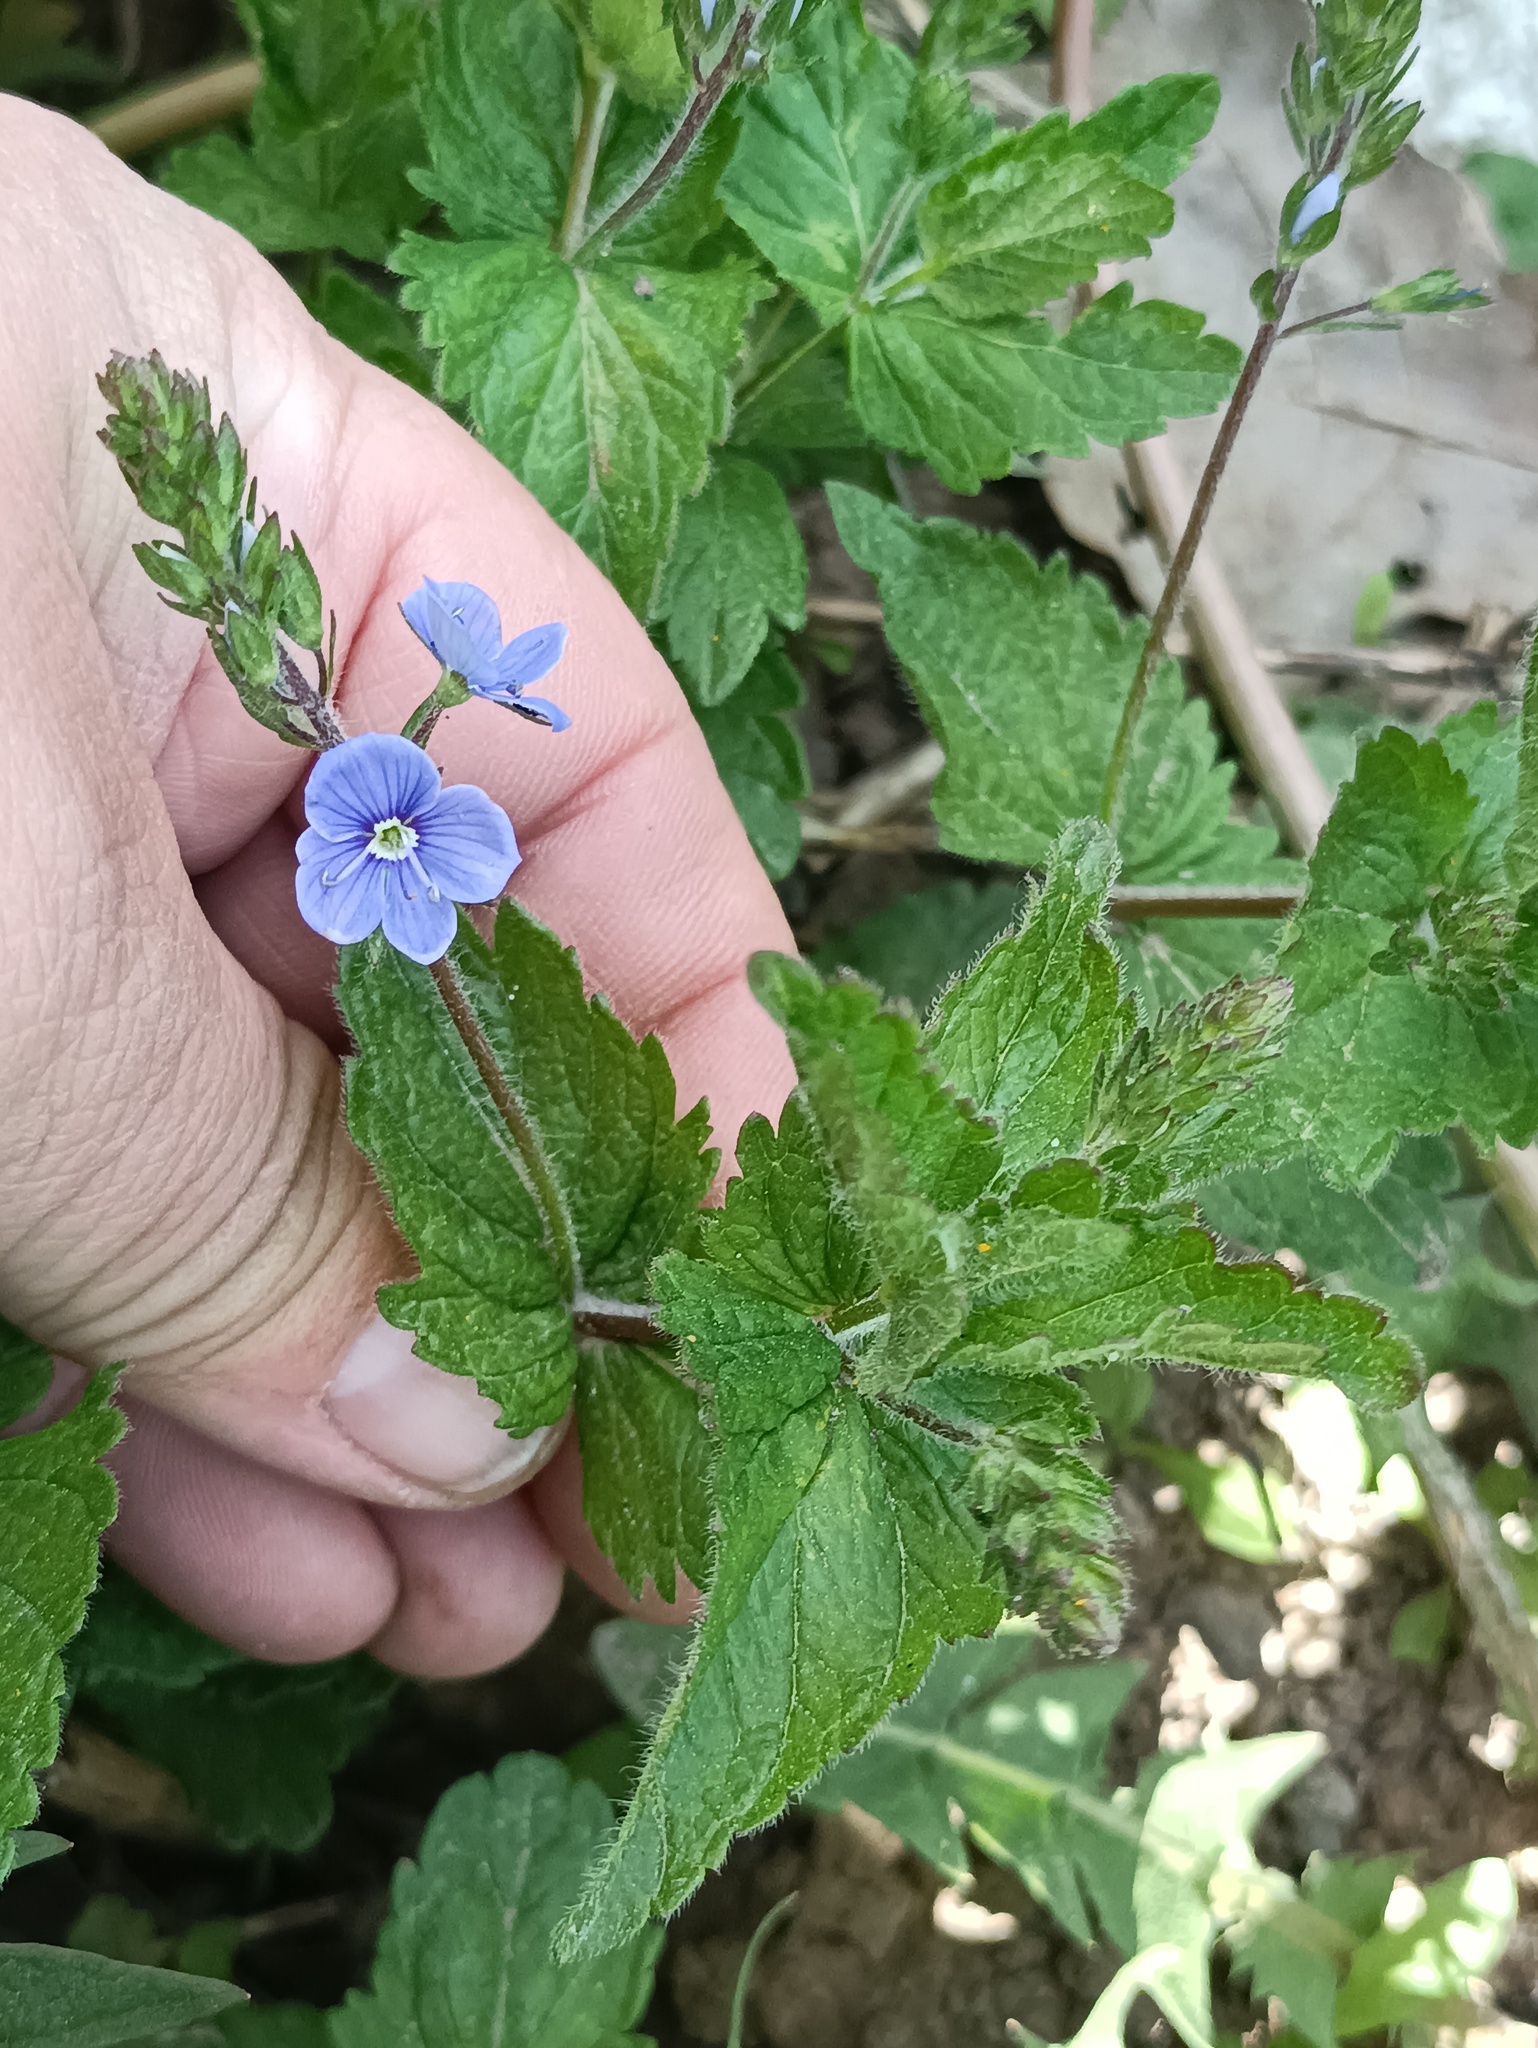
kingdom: Plantae
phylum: Tracheophyta
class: Magnoliopsida
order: Lamiales
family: Plantaginaceae
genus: Veronica
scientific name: Veronica chamaedrys
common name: Germander speedwell
